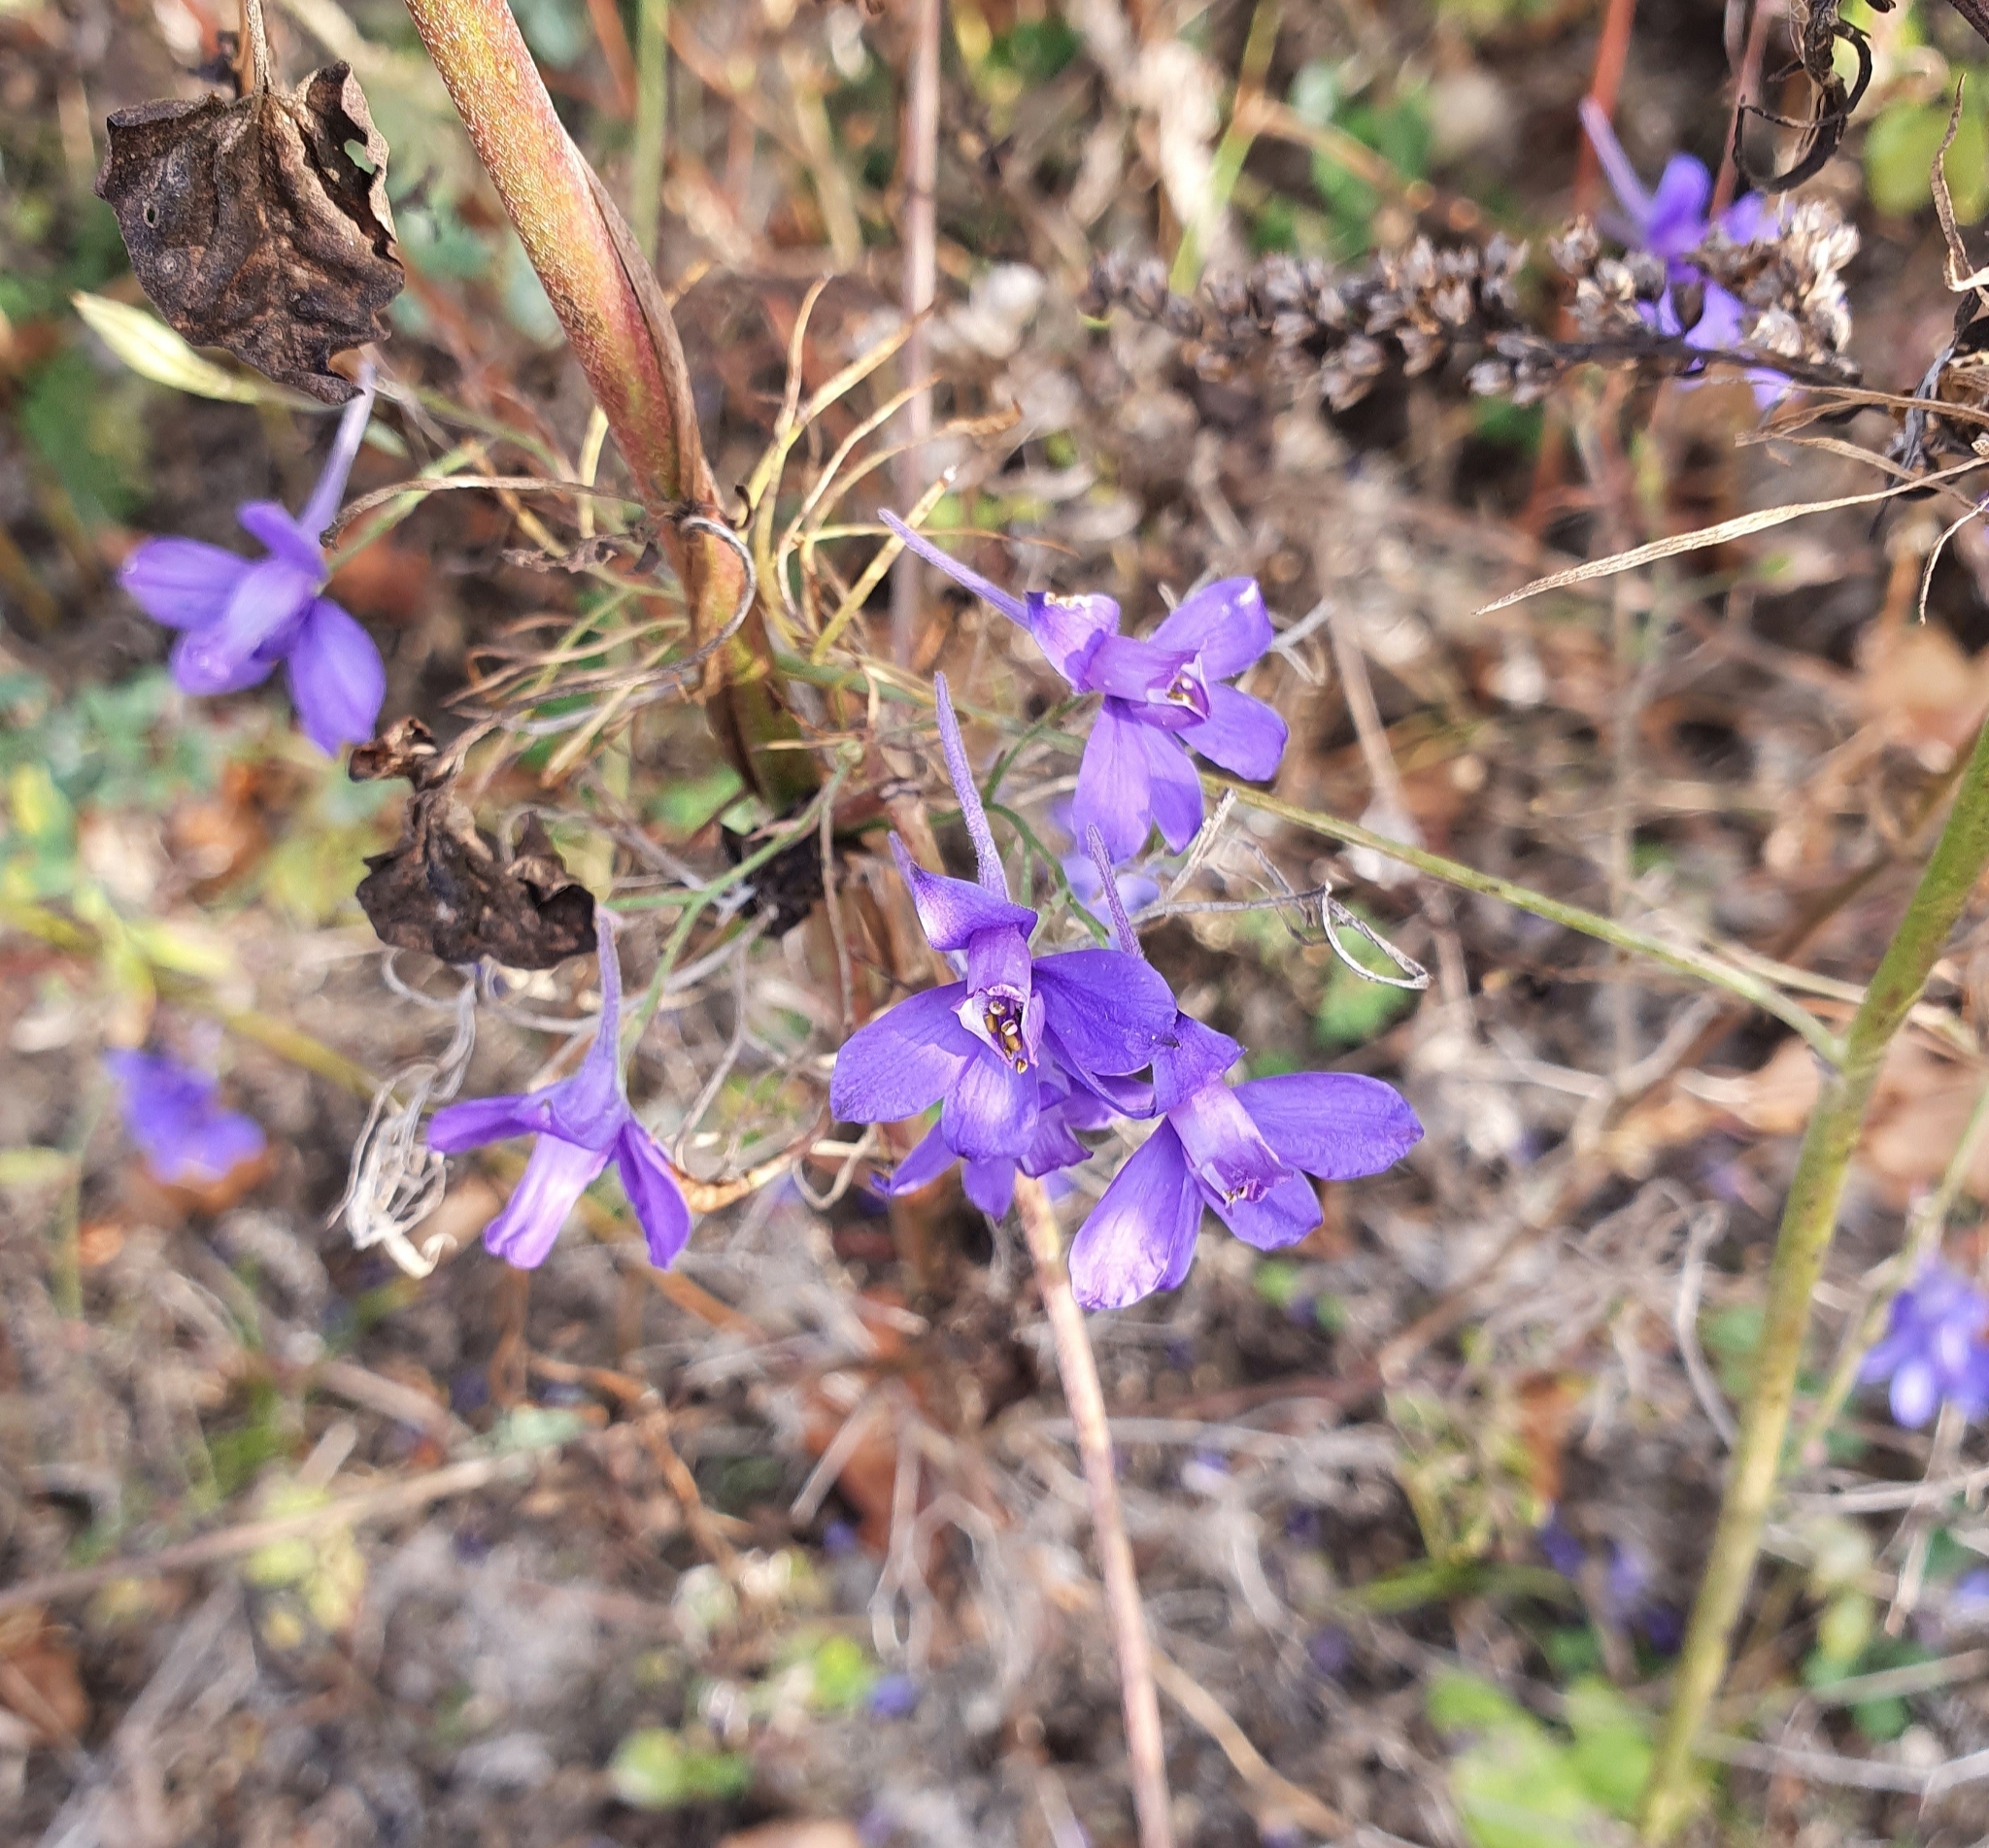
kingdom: Plantae
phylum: Tracheophyta
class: Magnoliopsida
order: Ranunculales
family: Ranunculaceae
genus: Delphinium
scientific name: Delphinium consolida
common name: Branching larkspur
